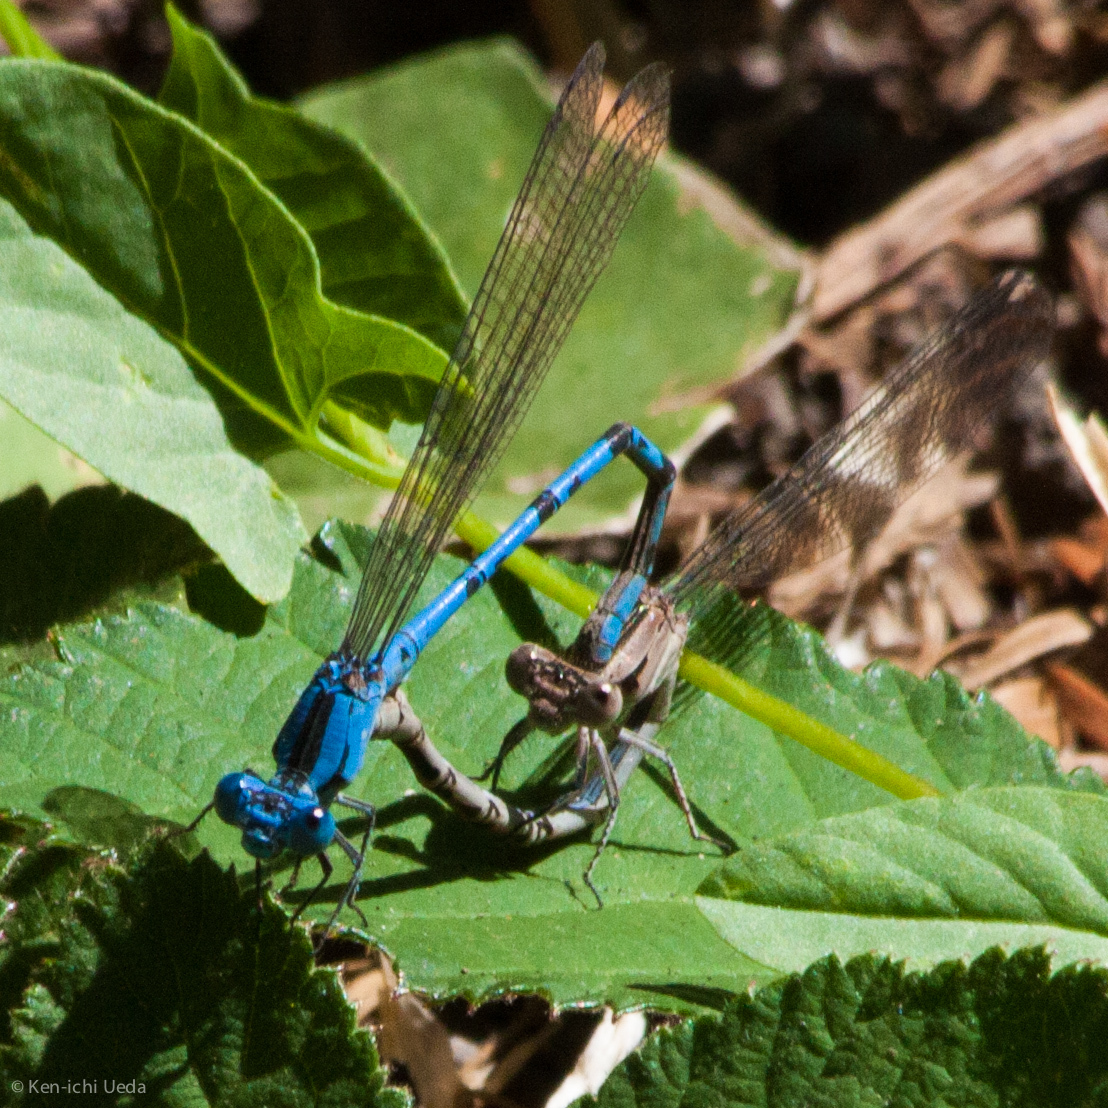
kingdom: Animalia
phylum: Arthropoda
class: Insecta
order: Odonata
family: Coenagrionidae
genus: Argia
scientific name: Argia vivida
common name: Vivid dancer
